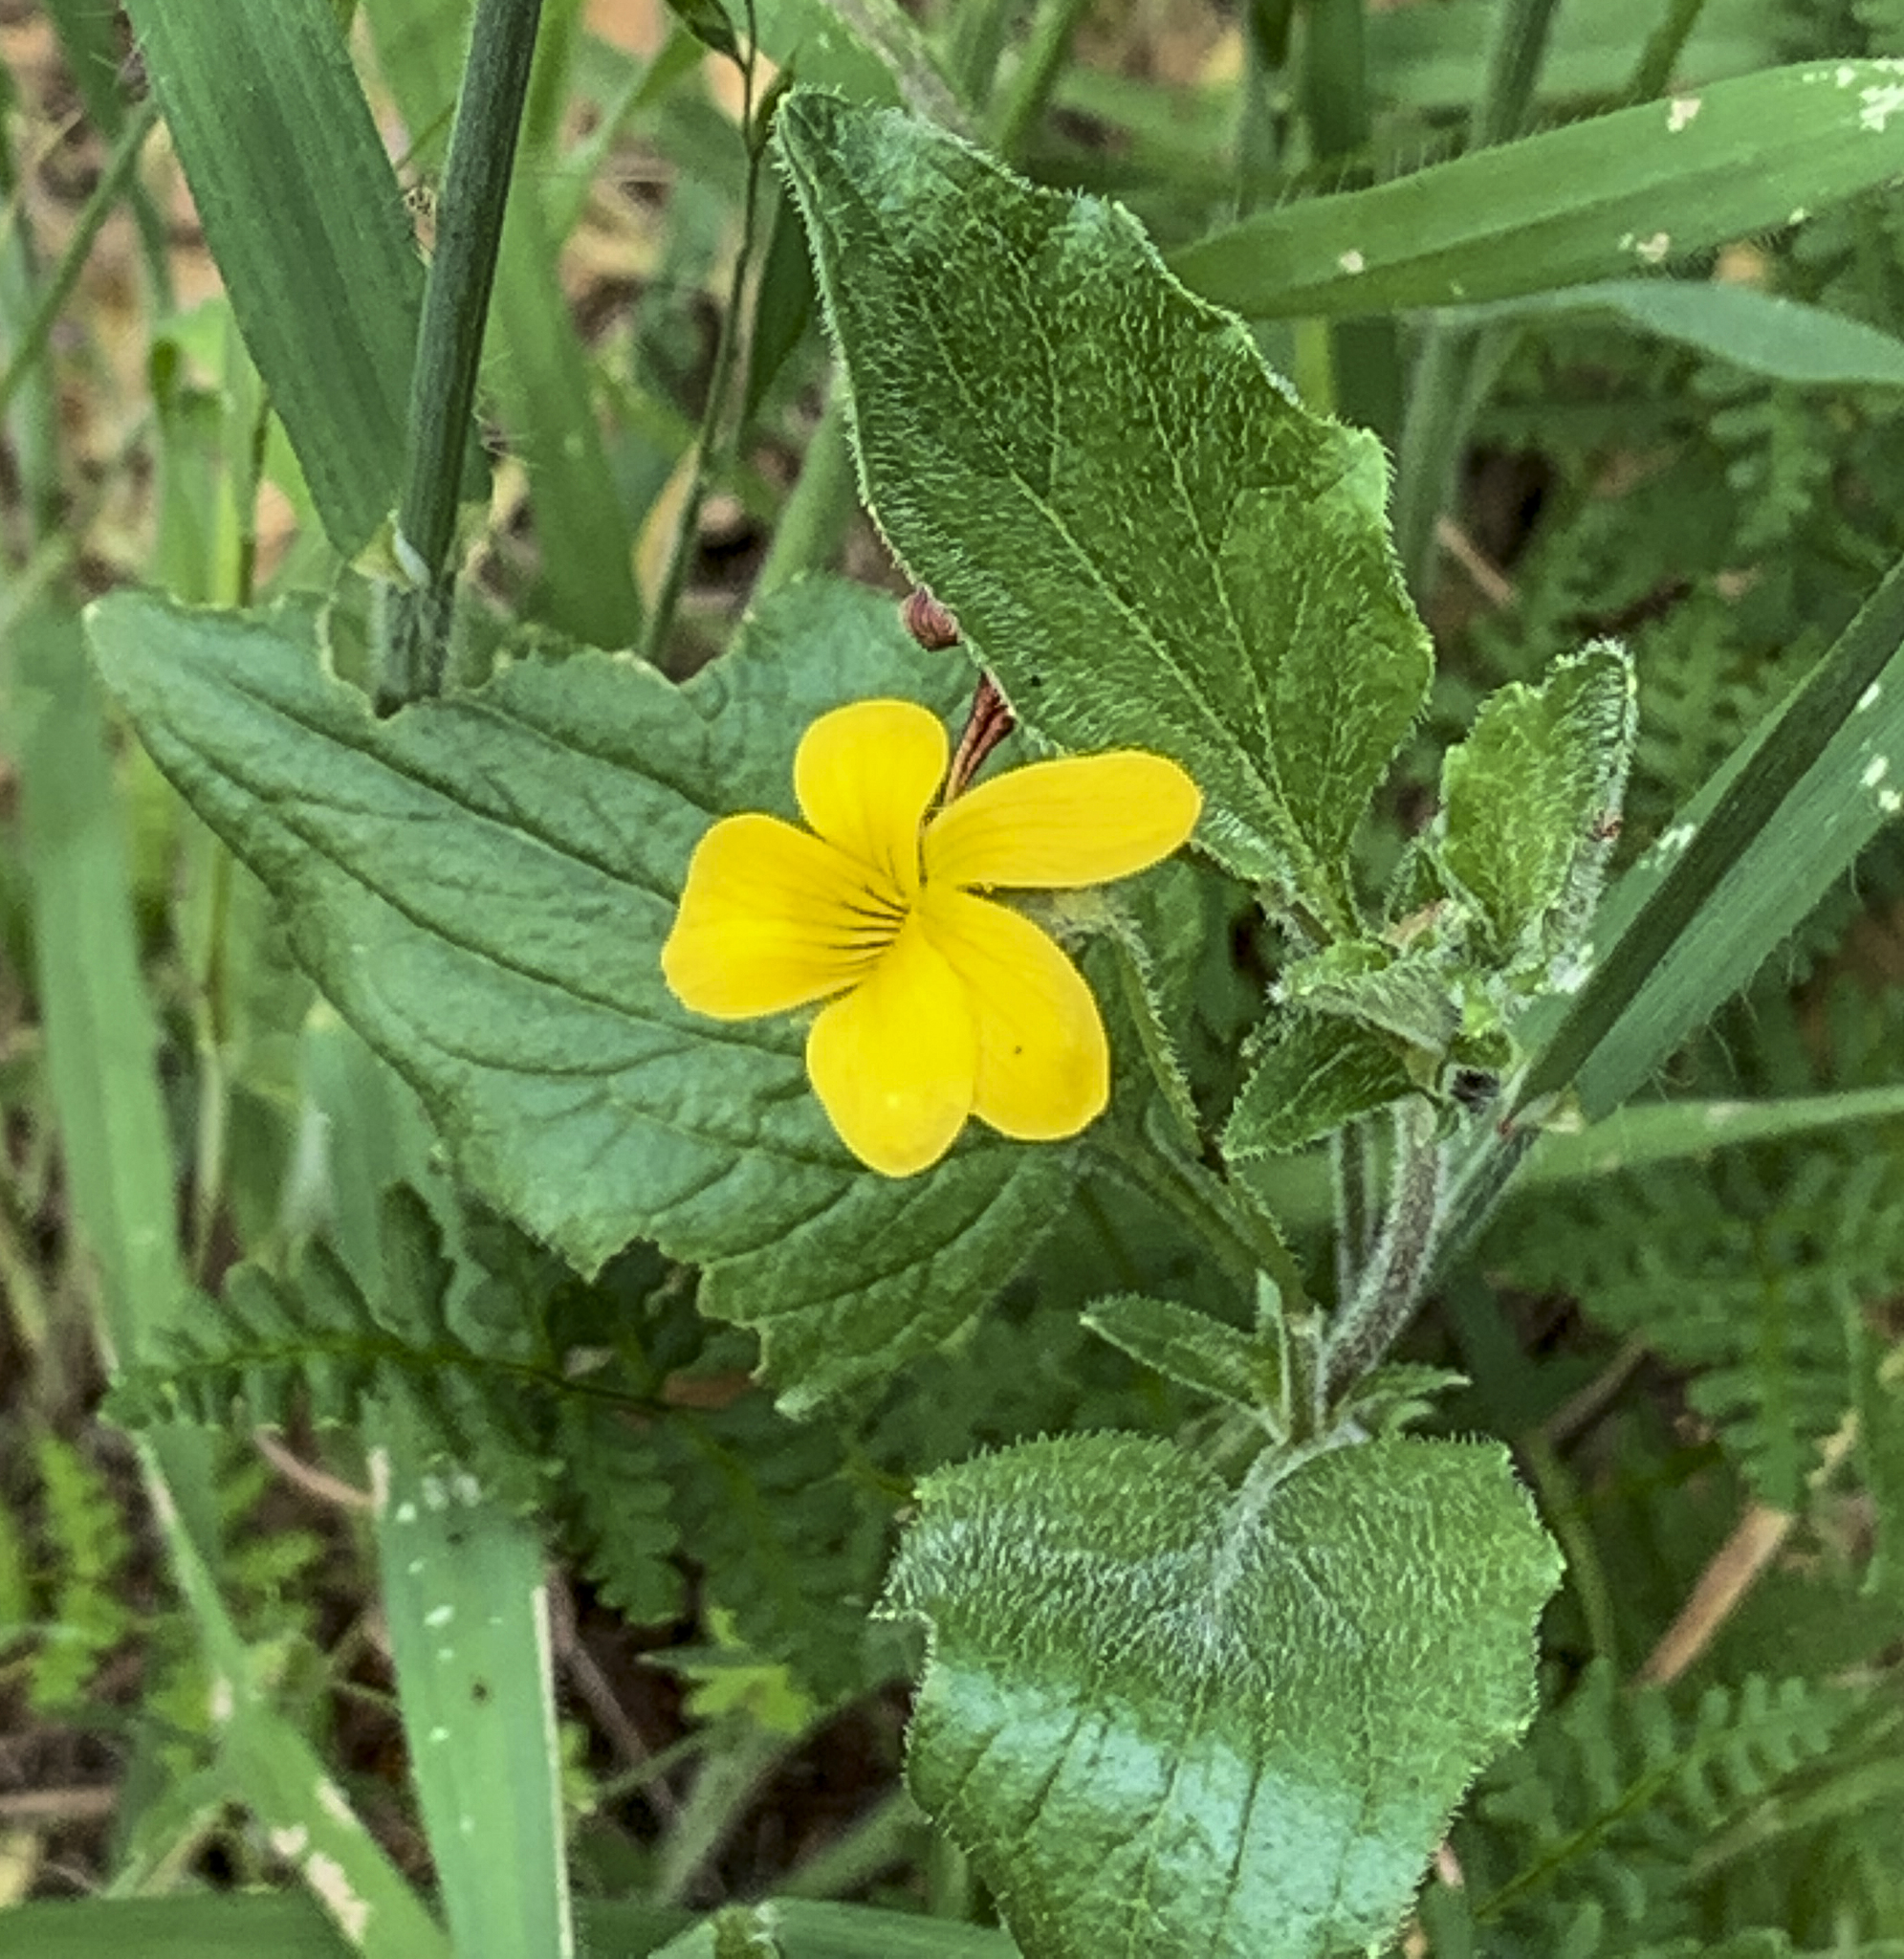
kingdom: Plantae
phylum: Tracheophyta
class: Magnoliopsida
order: Malpighiales
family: Violaceae
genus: Viola
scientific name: Viola purpurea
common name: Pine violet
